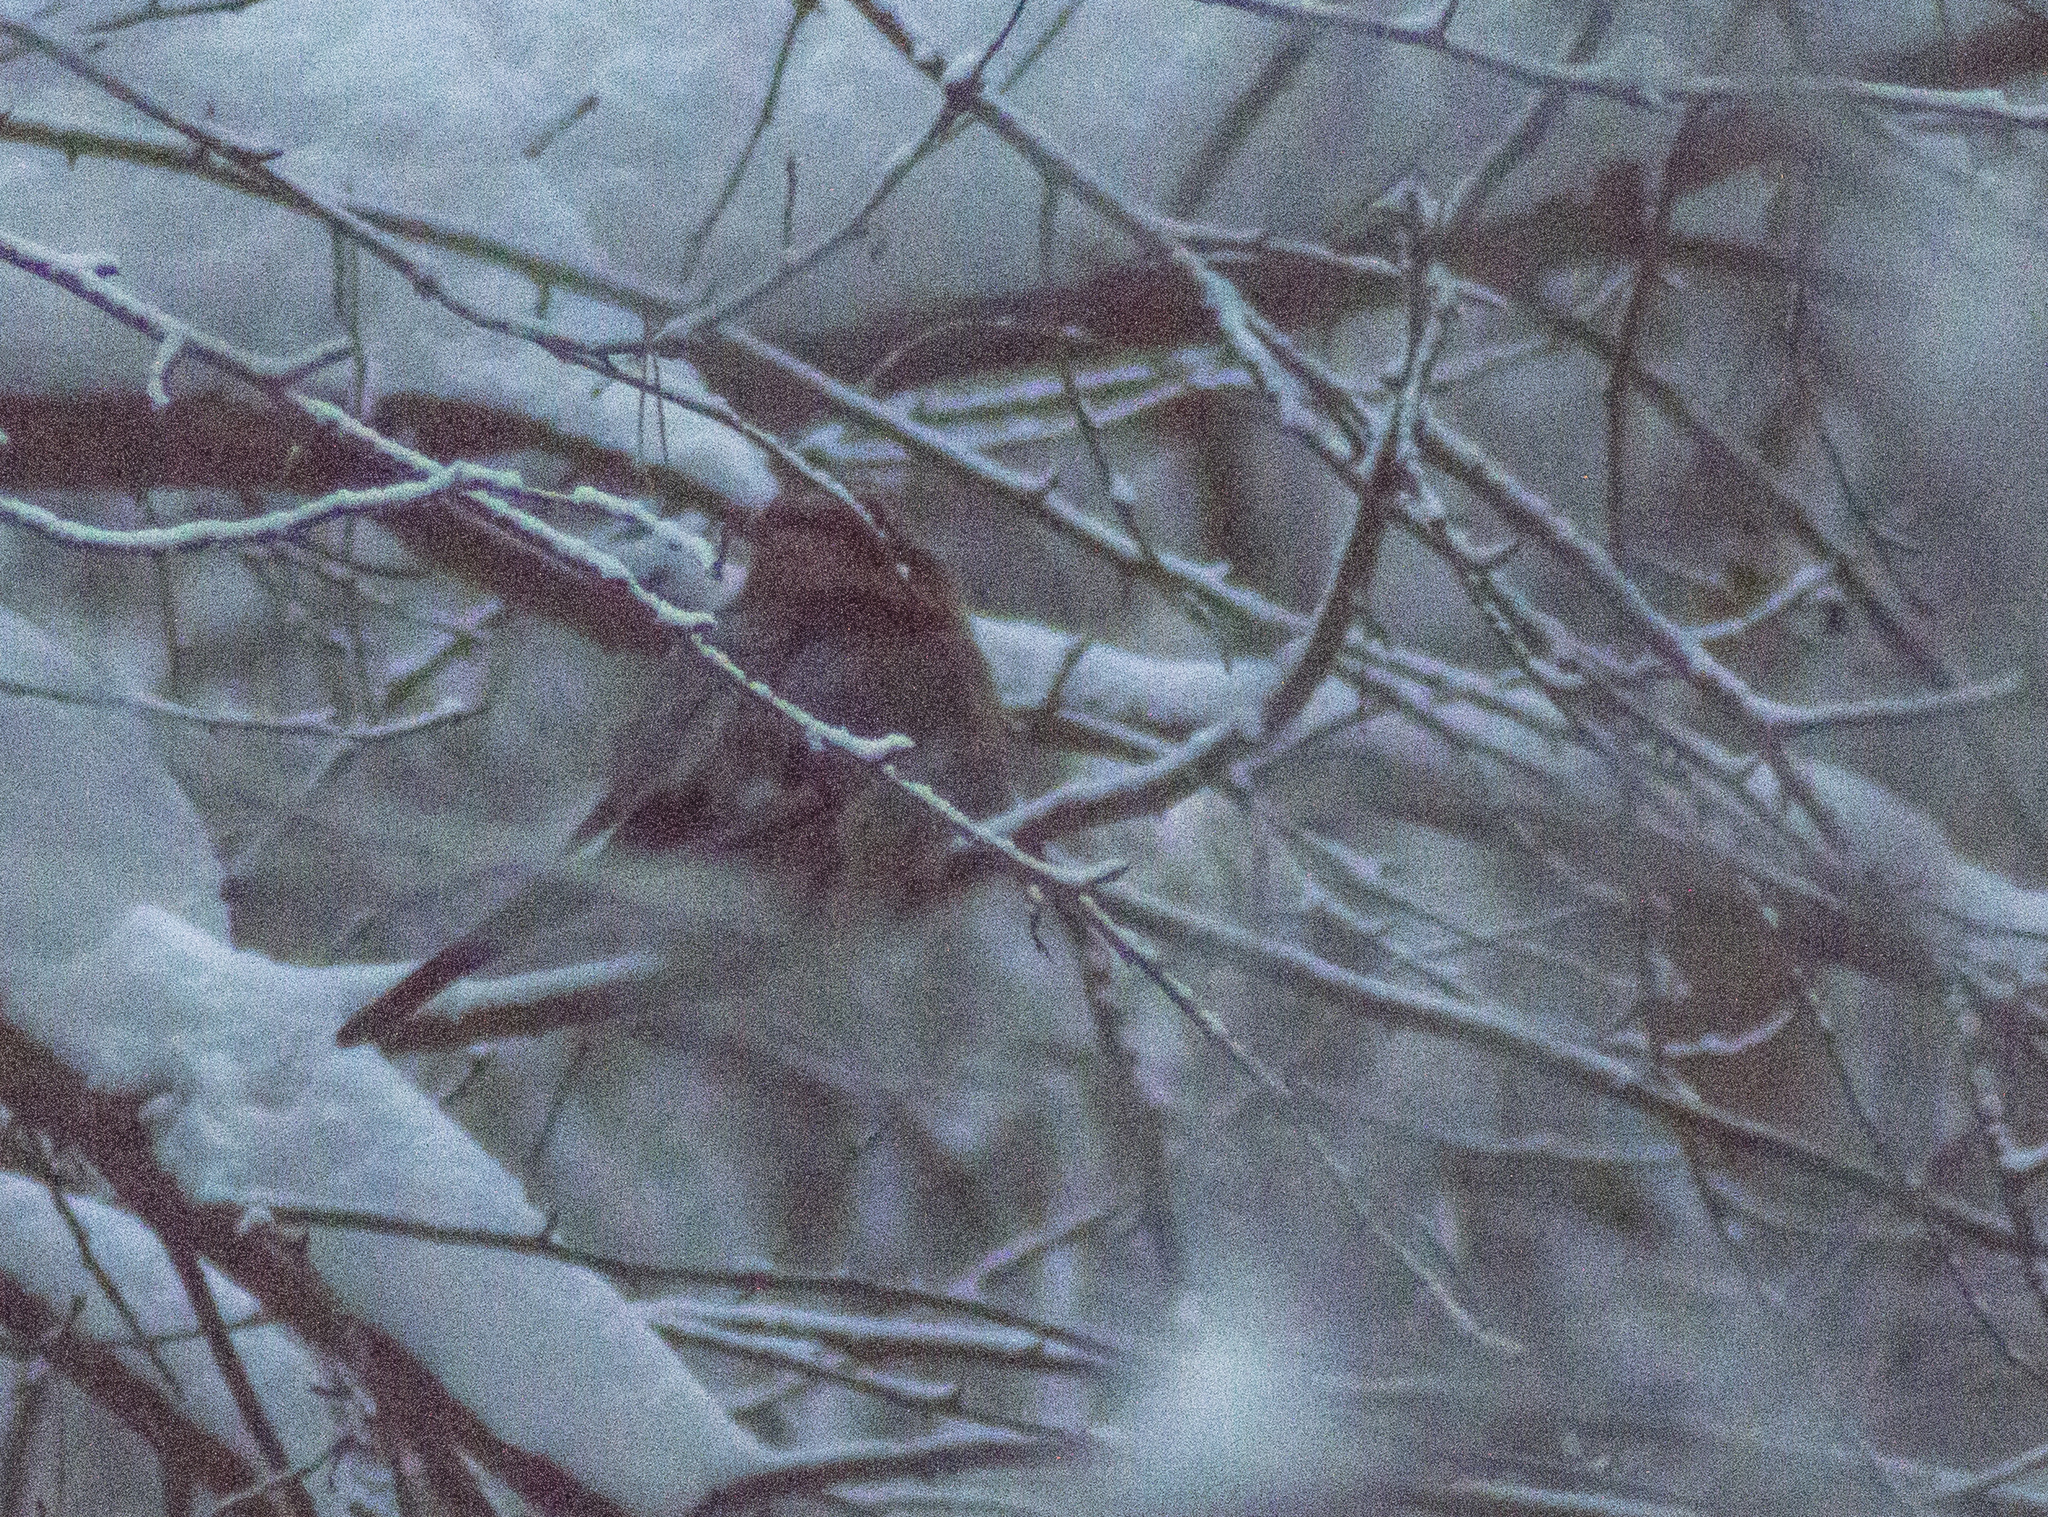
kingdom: Animalia
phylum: Chordata
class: Aves
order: Passeriformes
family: Corvidae
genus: Garrulus
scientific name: Garrulus glandarius
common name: Eurasian jay
